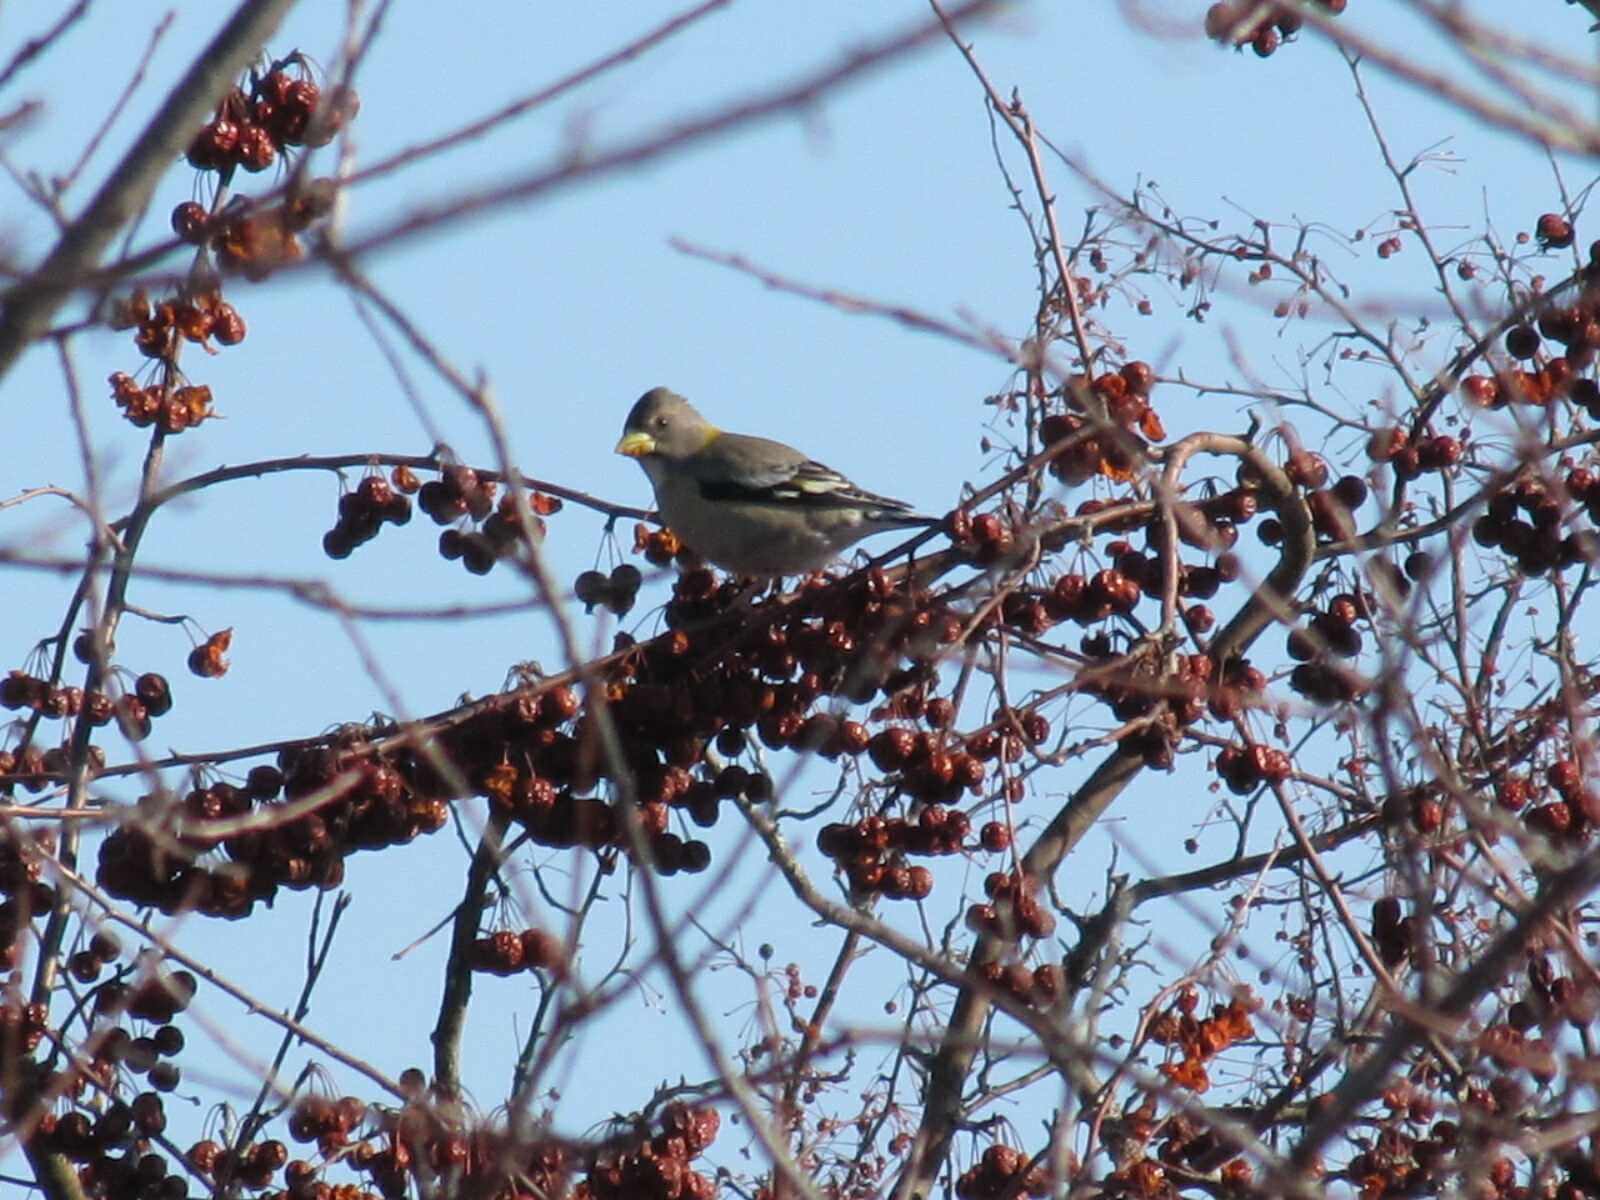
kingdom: Animalia
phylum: Chordata
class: Aves
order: Passeriformes
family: Fringillidae
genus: Hesperiphona
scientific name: Hesperiphona vespertina
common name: Evening grosbeak
